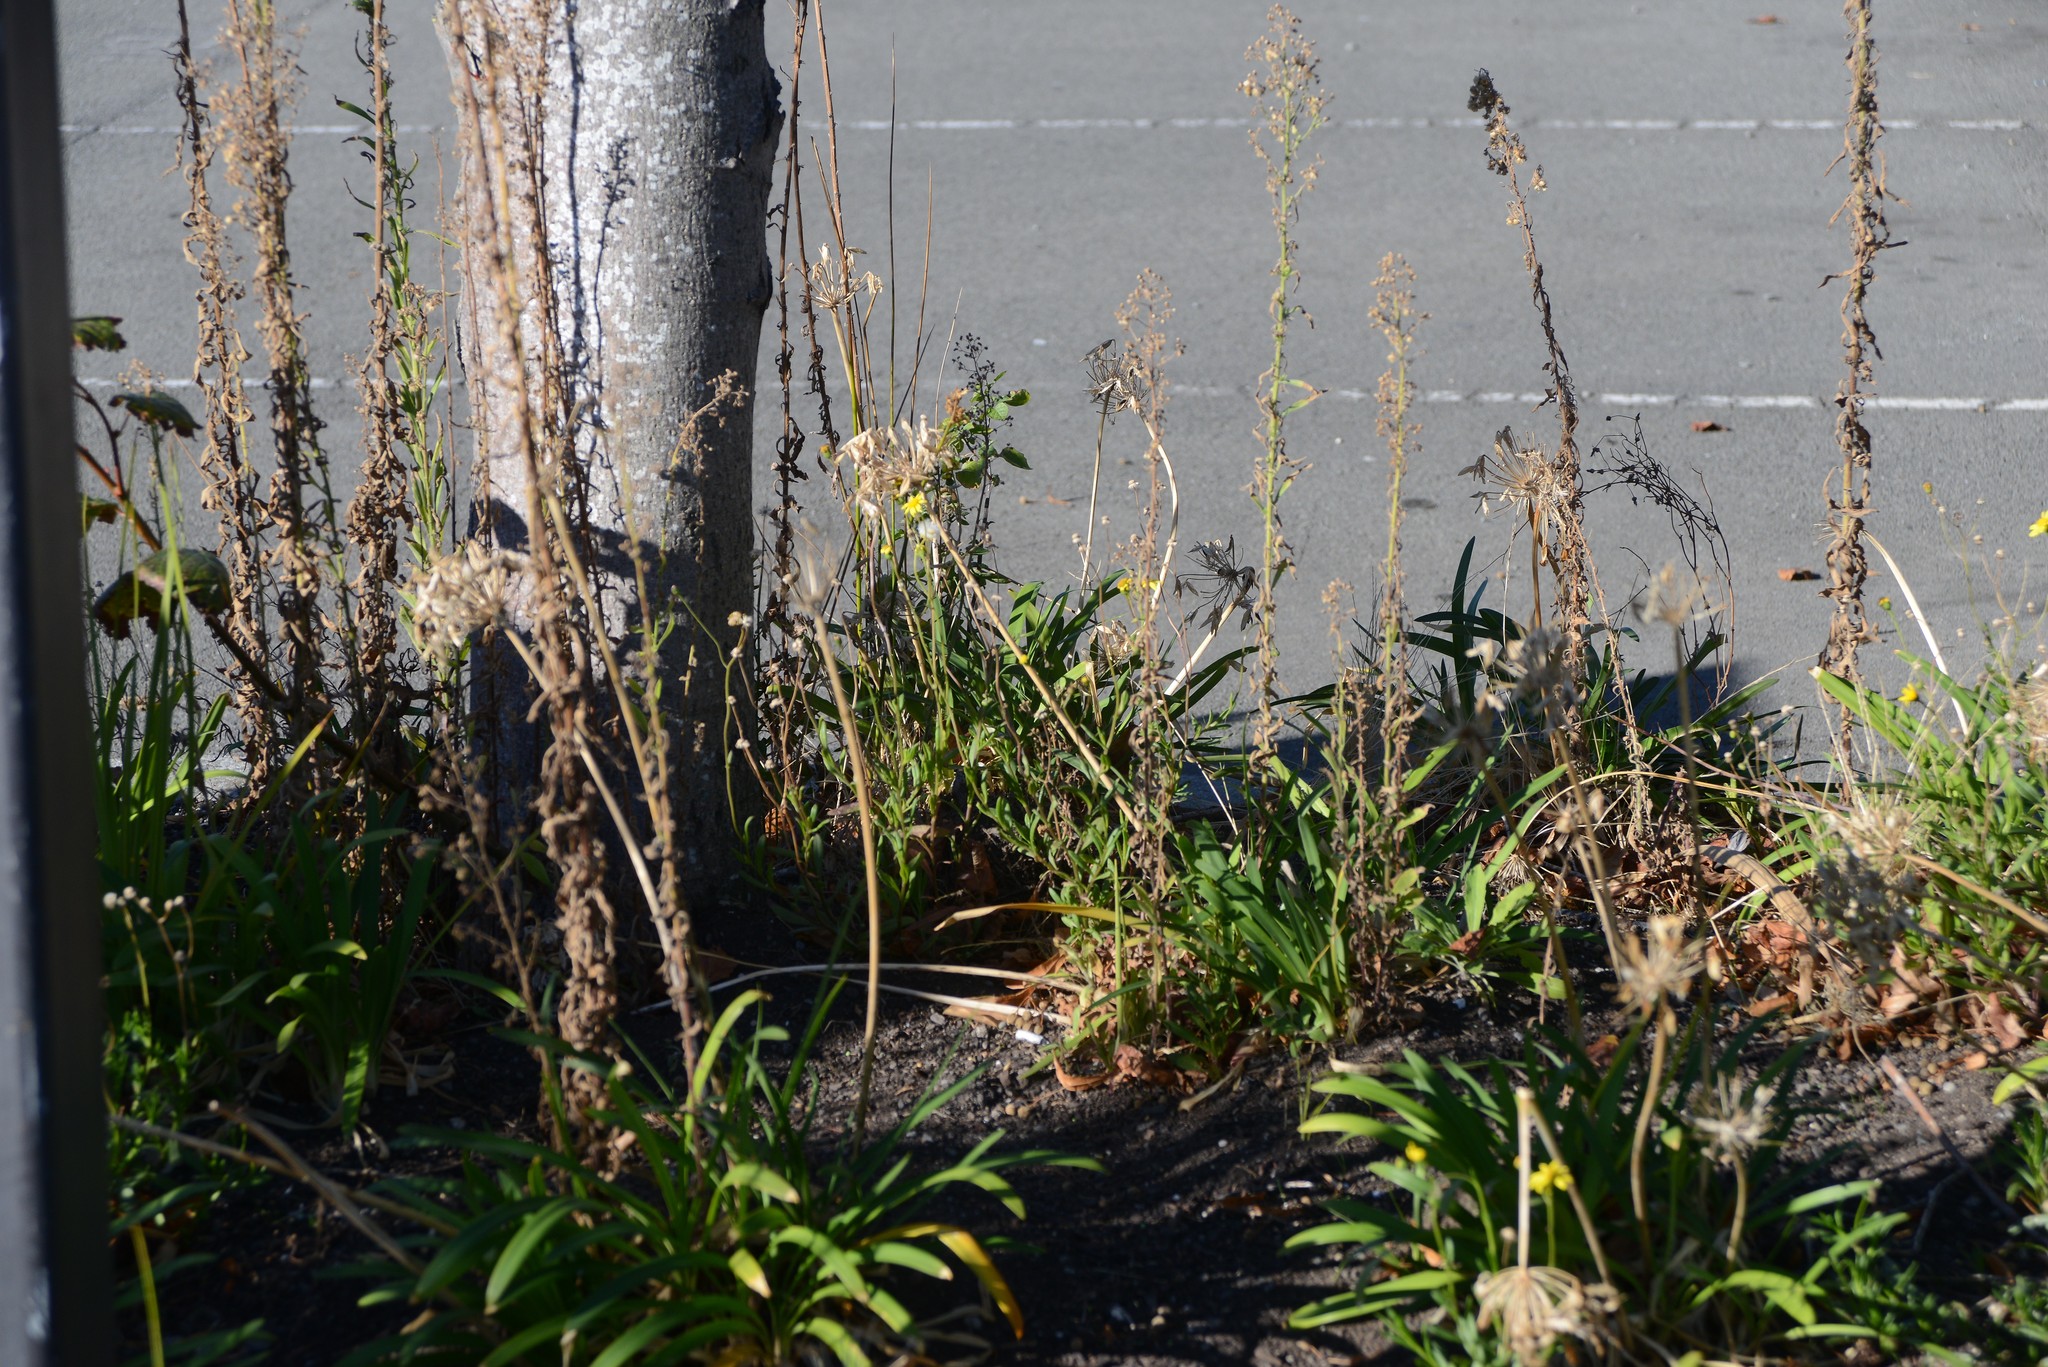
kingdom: Plantae
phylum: Tracheophyta
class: Magnoliopsida
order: Asterales
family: Asteraceae
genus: Senecio
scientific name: Senecio skirrhodon
